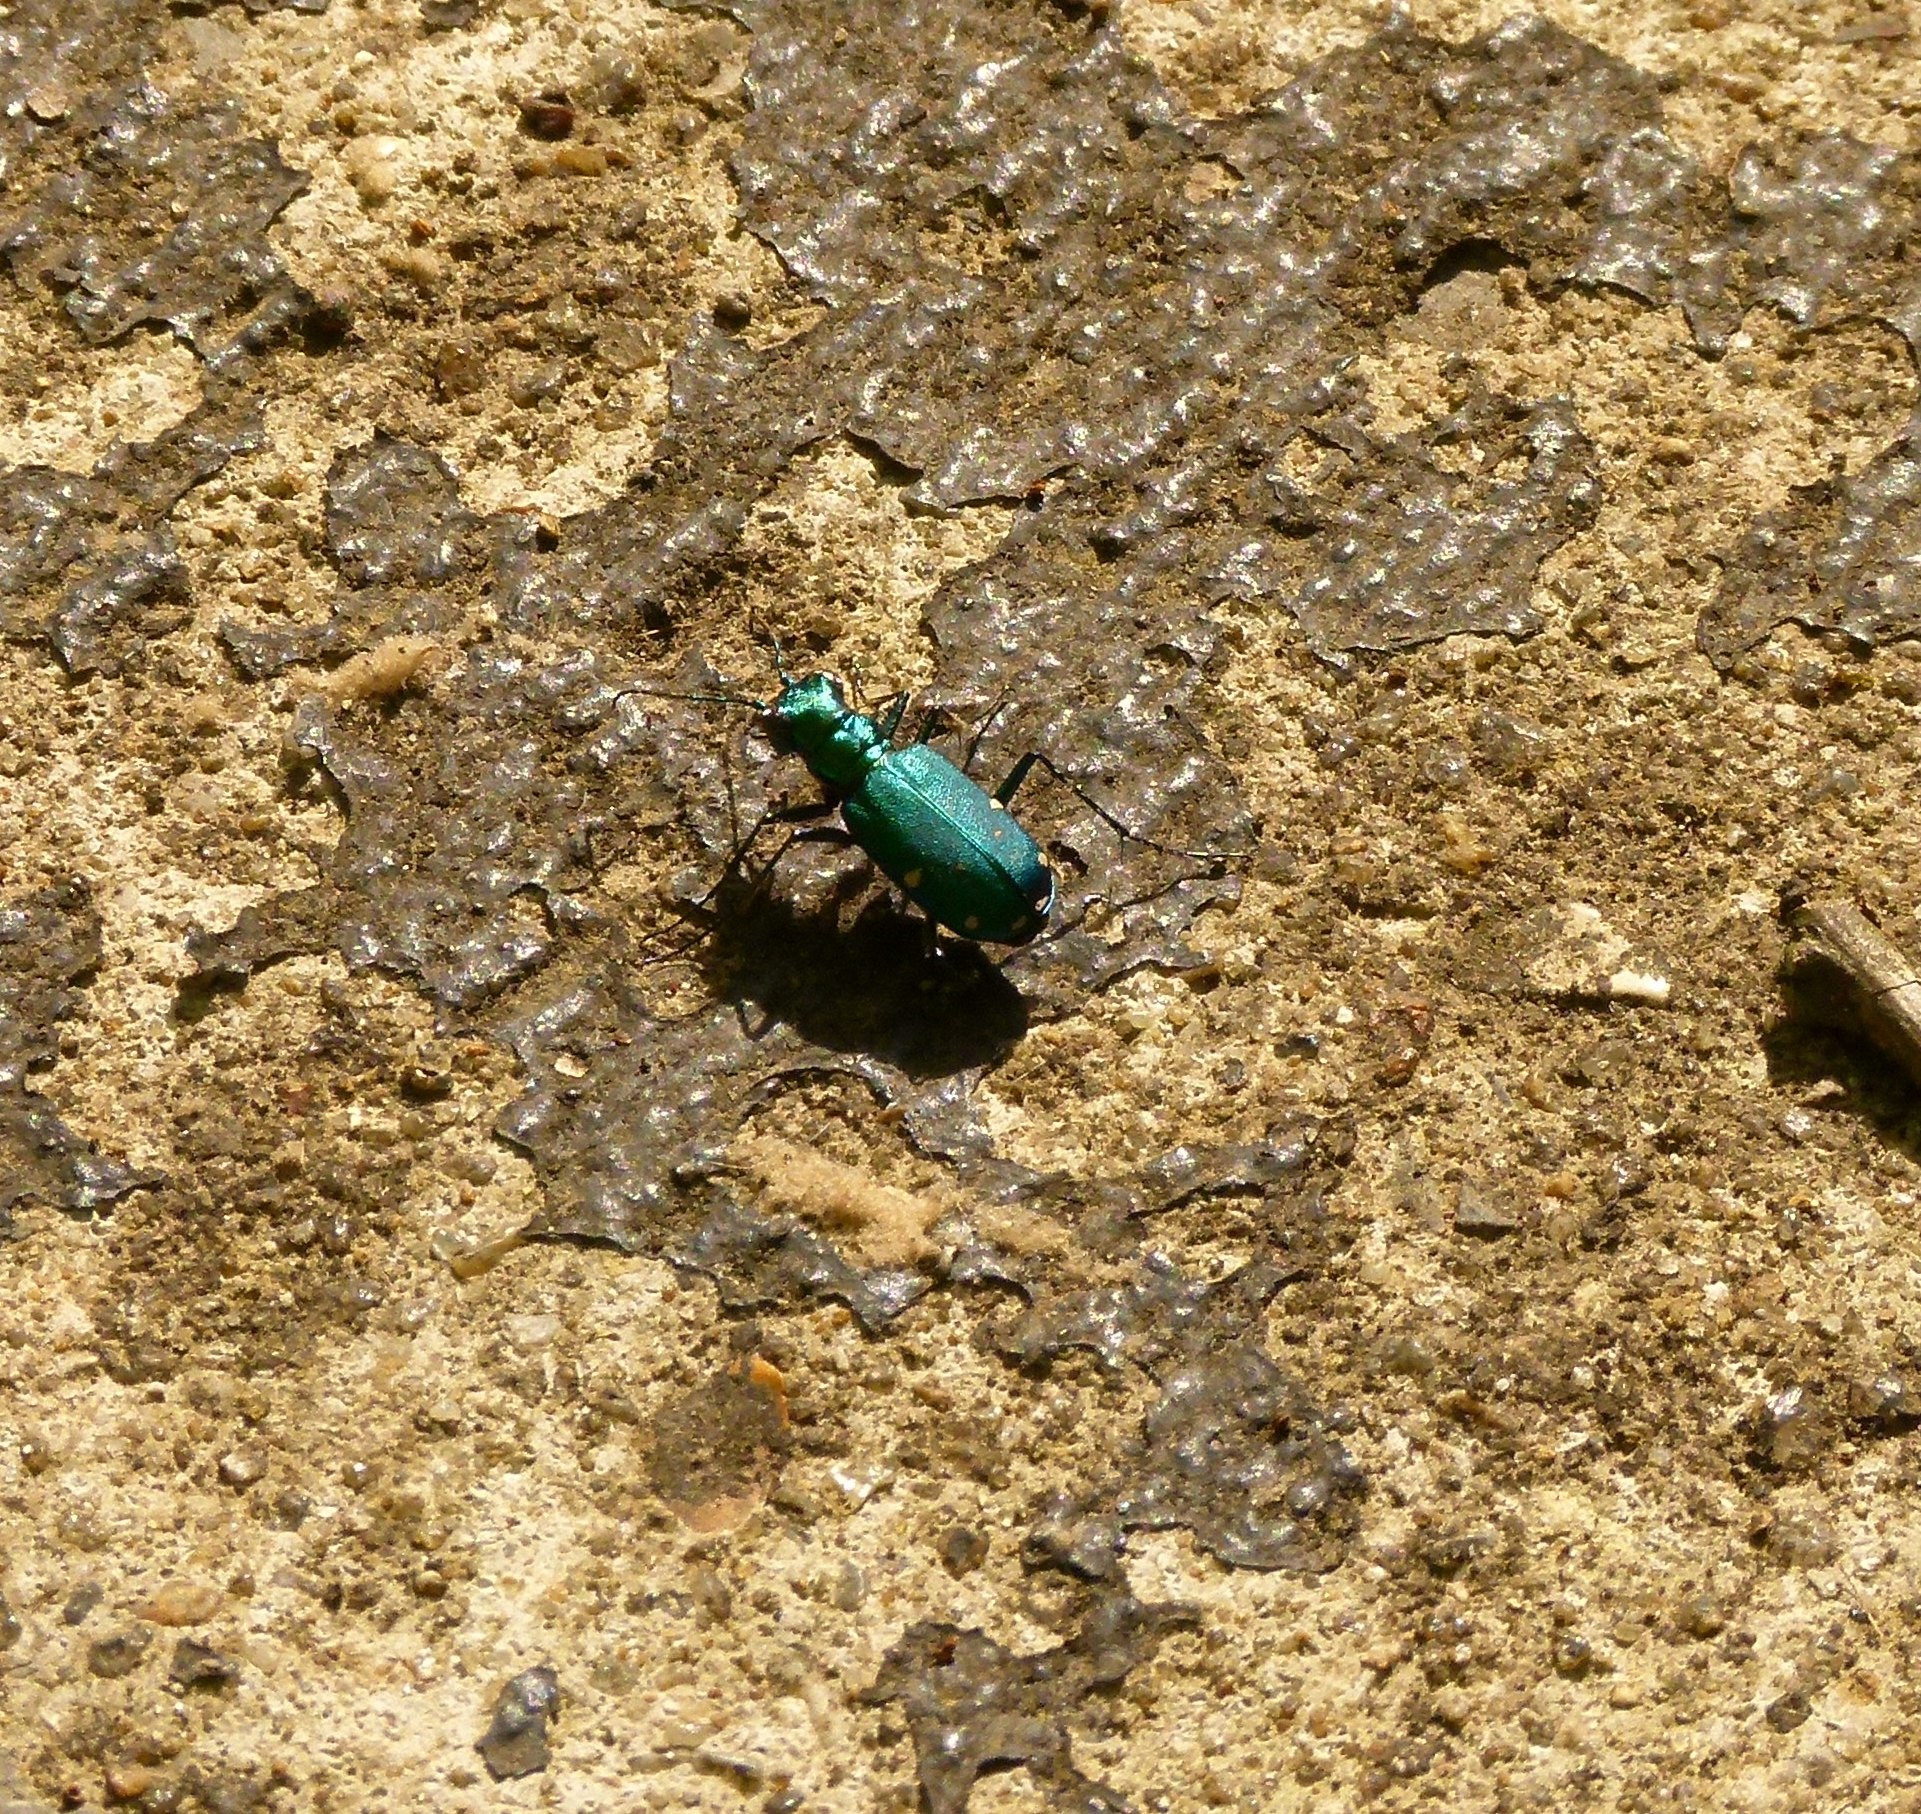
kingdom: Animalia
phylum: Arthropoda
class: Insecta
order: Coleoptera
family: Carabidae
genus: Cicindela
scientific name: Cicindela sexguttata
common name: Six-spotted tiger beetle
